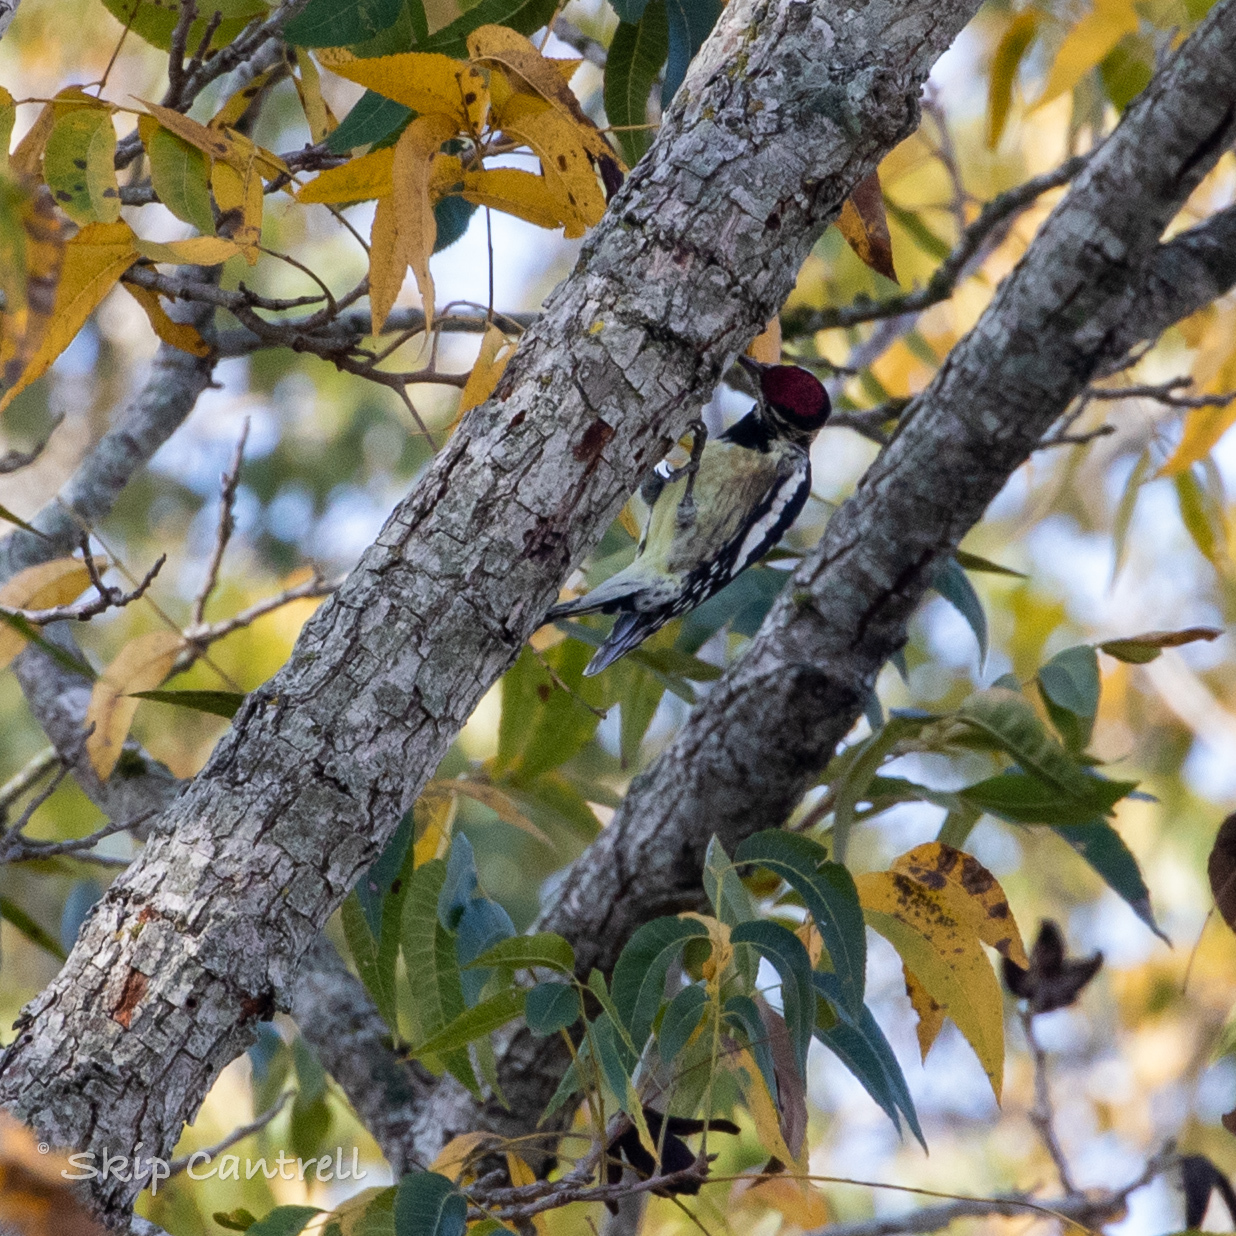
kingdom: Animalia
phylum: Chordata
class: Aves
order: Piciformes
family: Picidae
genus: Sphyrapicus
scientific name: Sphyrapicus varius
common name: Yellow-bellied sapsucker
